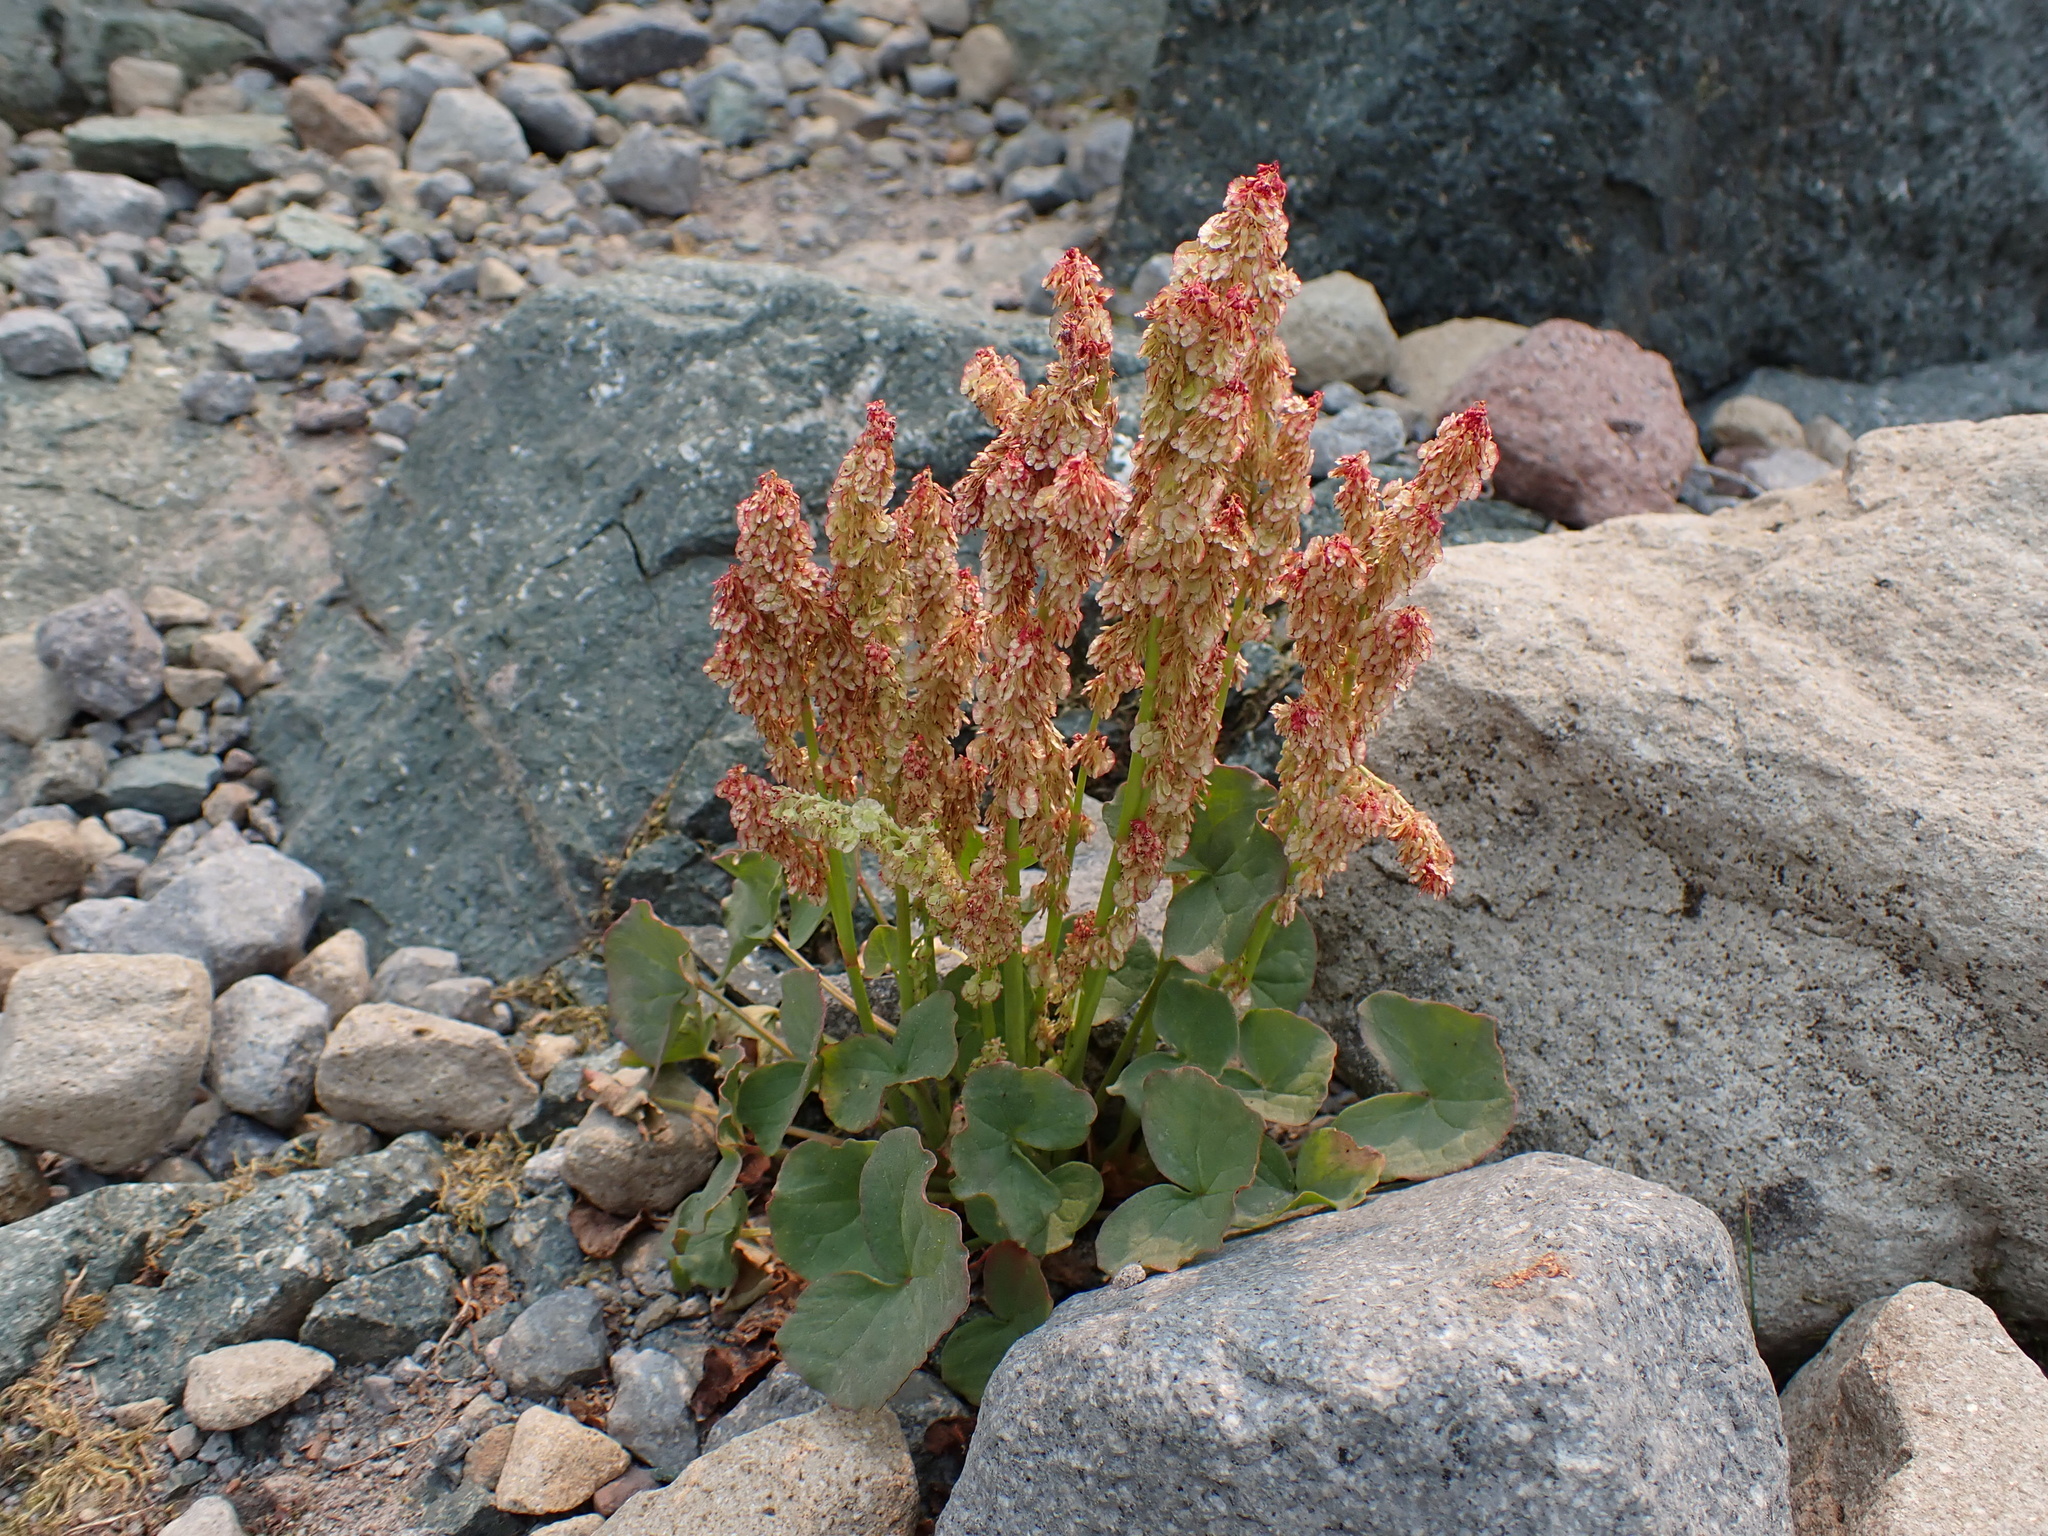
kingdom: Plantae
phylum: Tracheophyta
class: Magnoliopsida
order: Caryophyllales
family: Polygonaceae
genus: Oxyria
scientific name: Oxyria digyna
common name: Alpine mountain-sorrel
